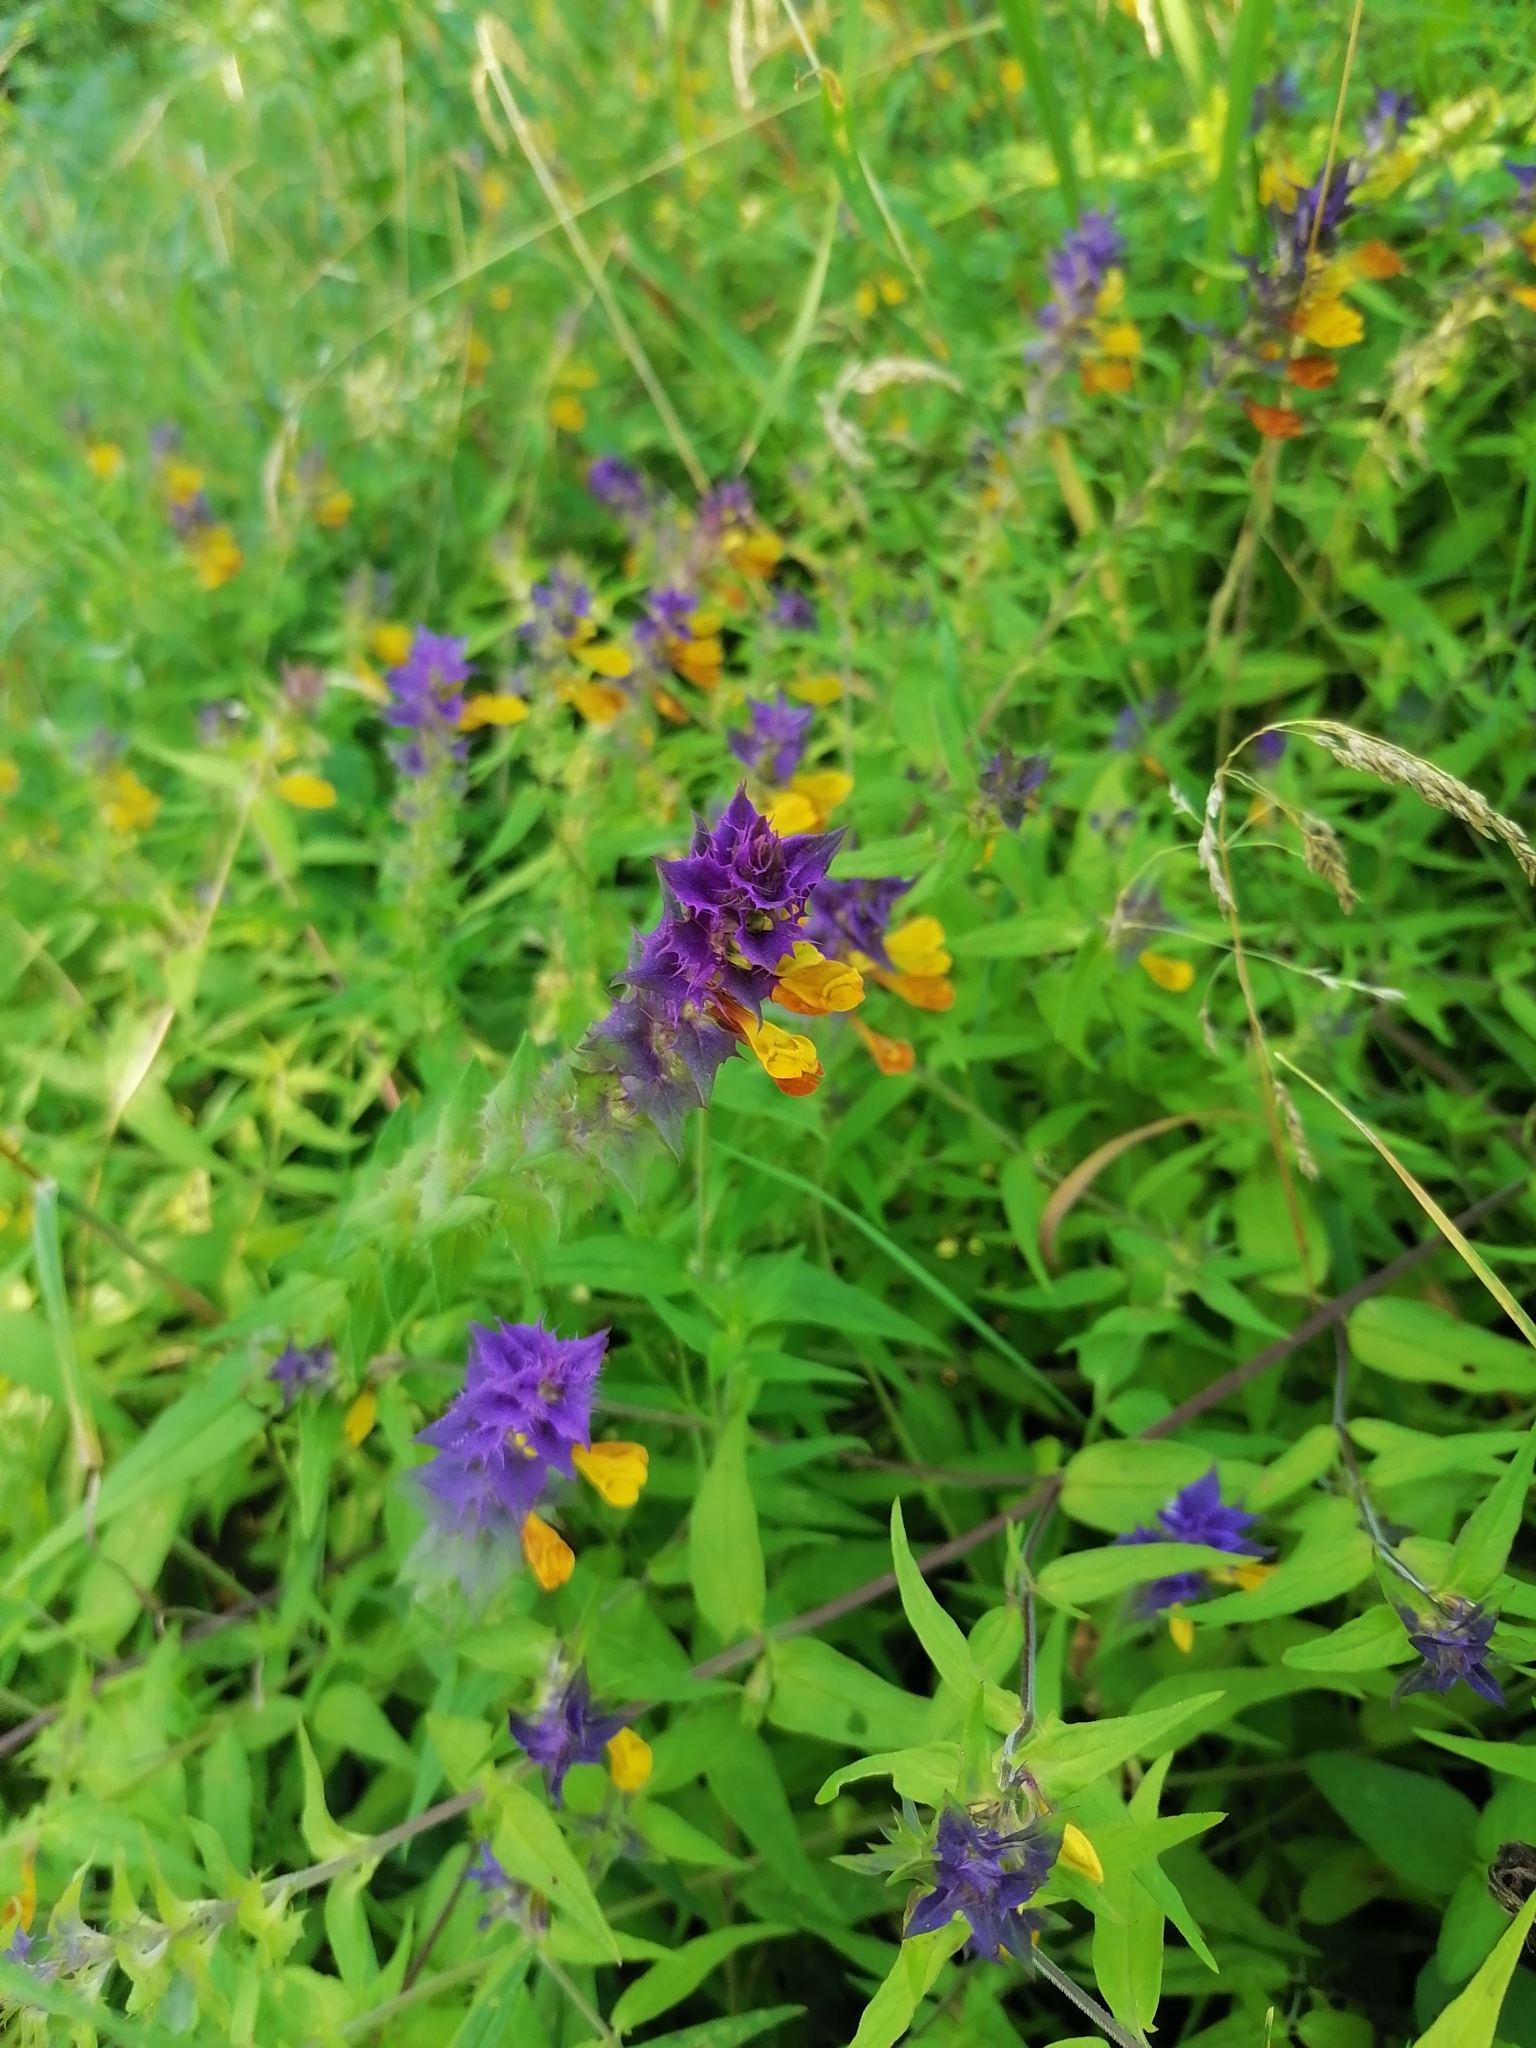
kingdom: Plantae
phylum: Tracheophyta
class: Magnoliopsida
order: Lamiales
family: Orobanchaceae
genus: Melampyrum
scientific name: Melampyrum nemorosum
